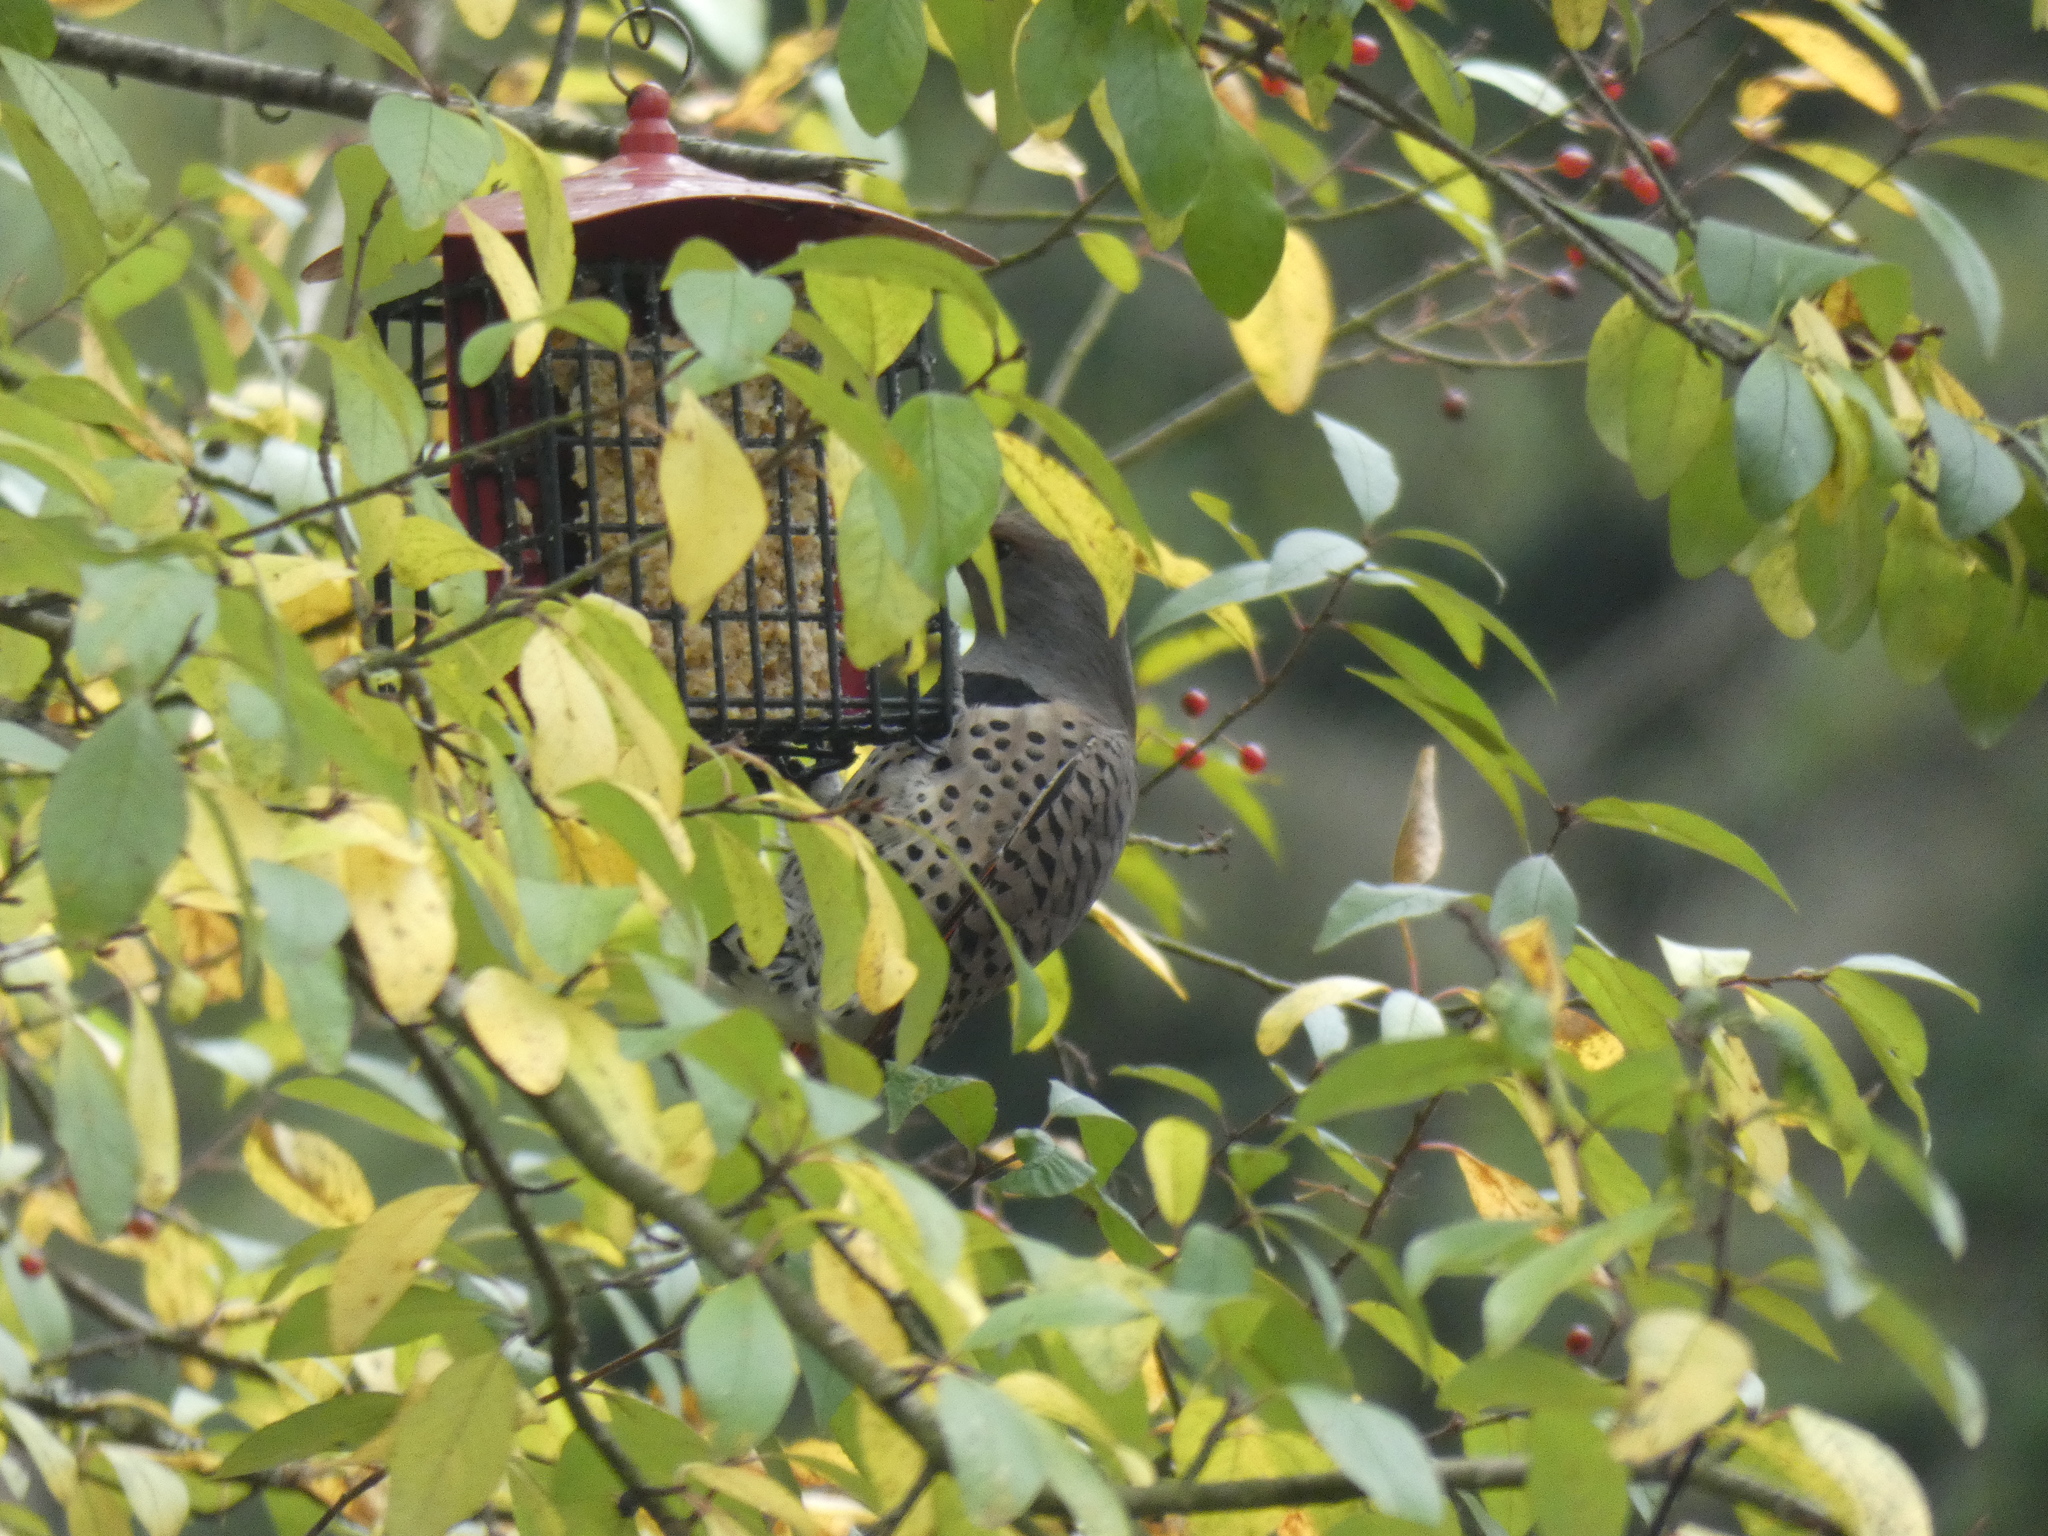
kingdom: Animalia
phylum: Chordata
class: Aves
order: Piciformes
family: Picidae
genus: Colaptes
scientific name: Colaptes auratus
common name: Northern flicker
